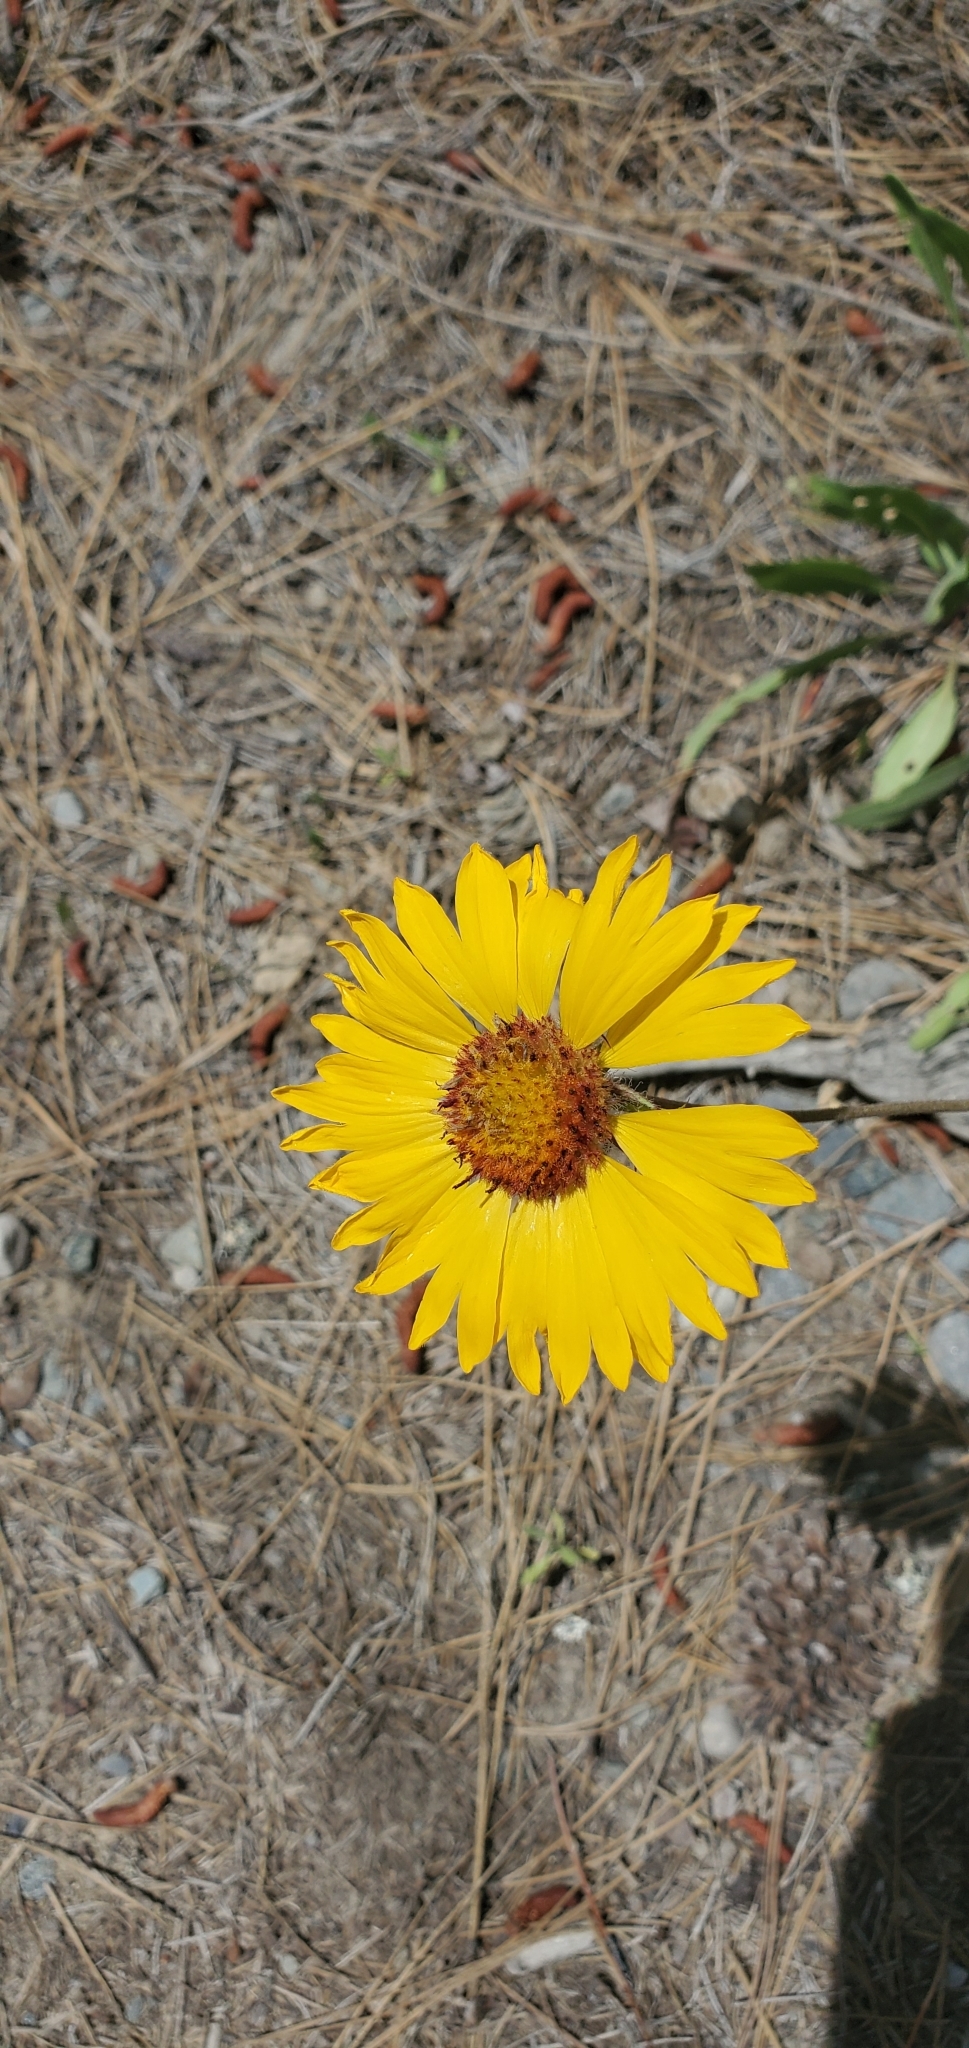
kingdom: Plantae
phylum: Tracheophyta
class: Magnoliopsida
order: Asterales
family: Asteraceae
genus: Gaillardia
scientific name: Gaillardia aristata
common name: Blanket-flower
